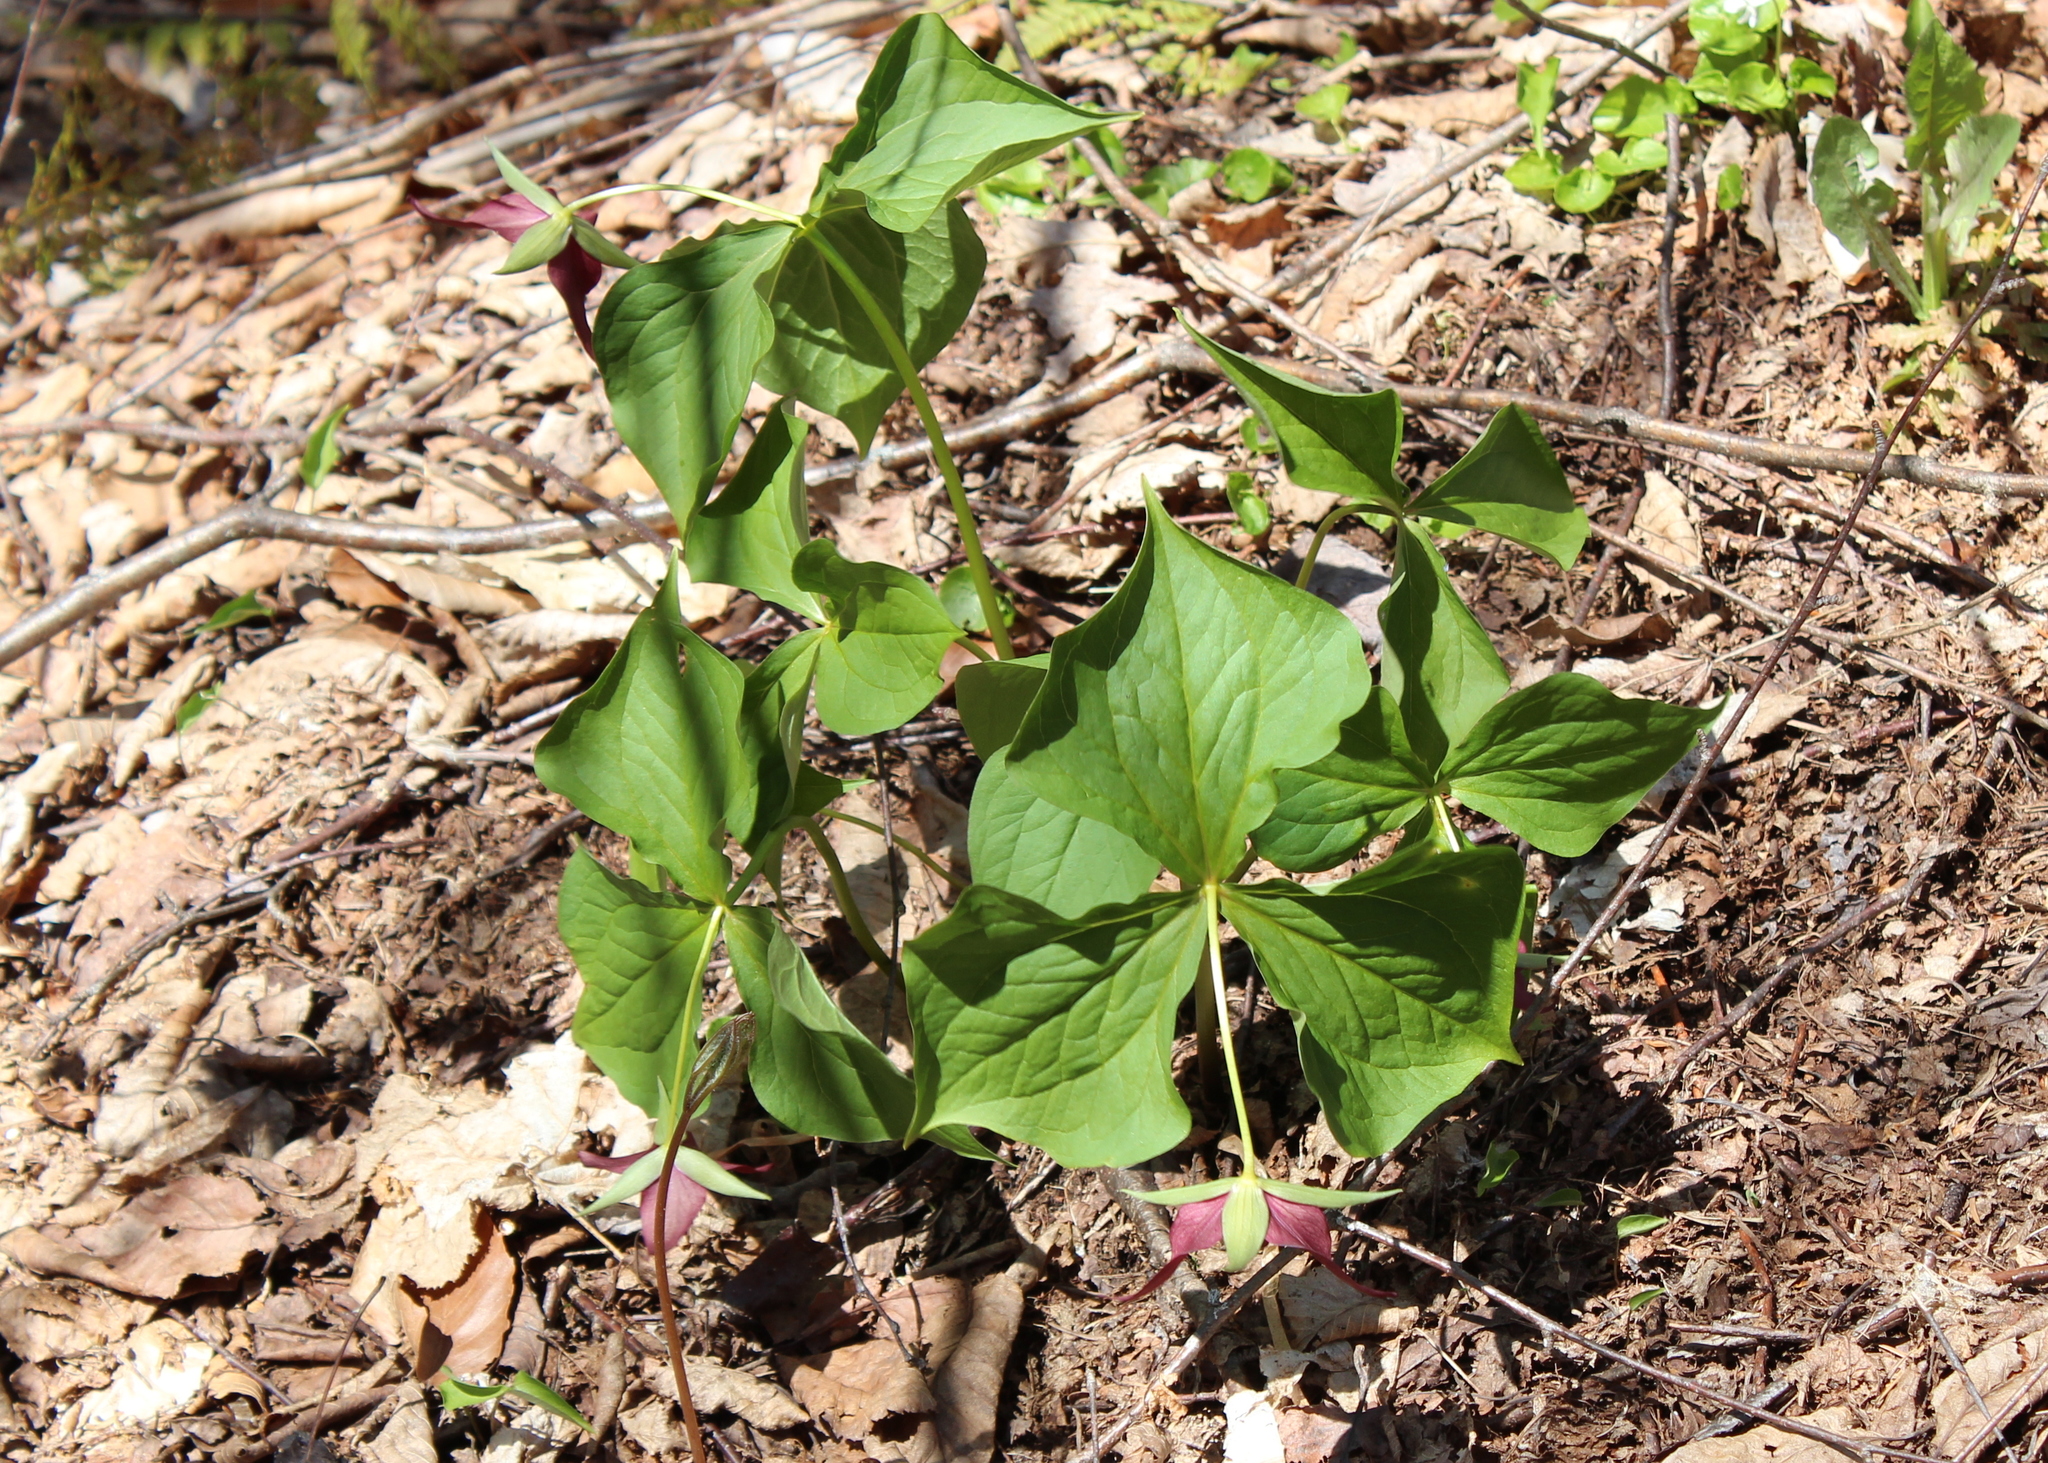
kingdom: Plantae
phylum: Tracheophyta
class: Liliopsida
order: Liliales
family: Melanthiaceae
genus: Trillium
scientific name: Trillium erectum
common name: Purple trillium
